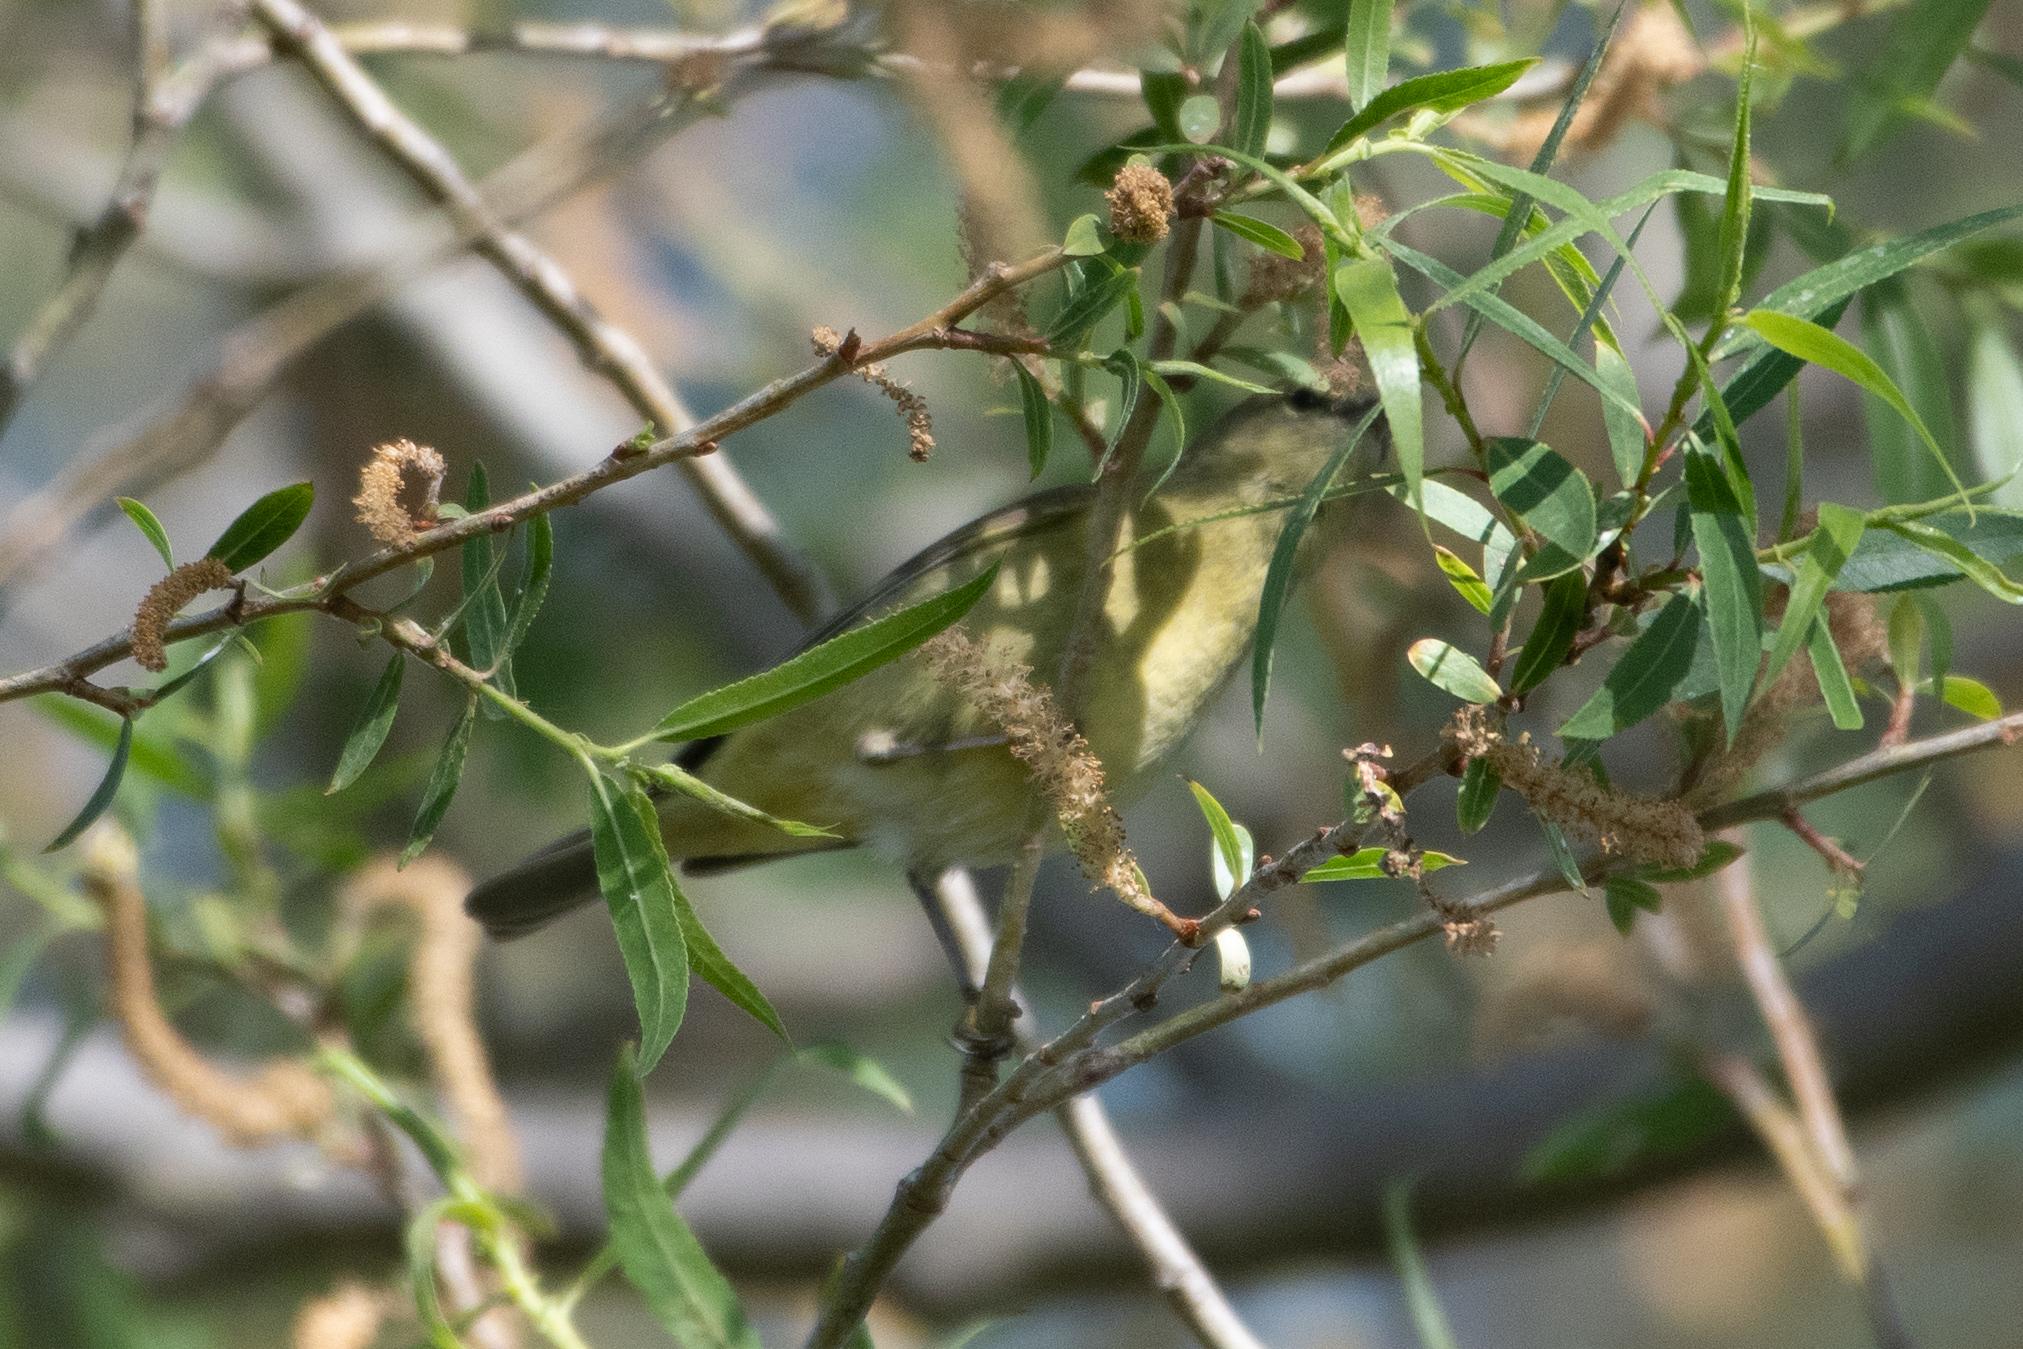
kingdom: Animalia
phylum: Chordata
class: Aves
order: Passeriformes
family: Parulidae
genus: Leiothlypis
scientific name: Leiothlypis celata
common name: Orange-crowned warbler
